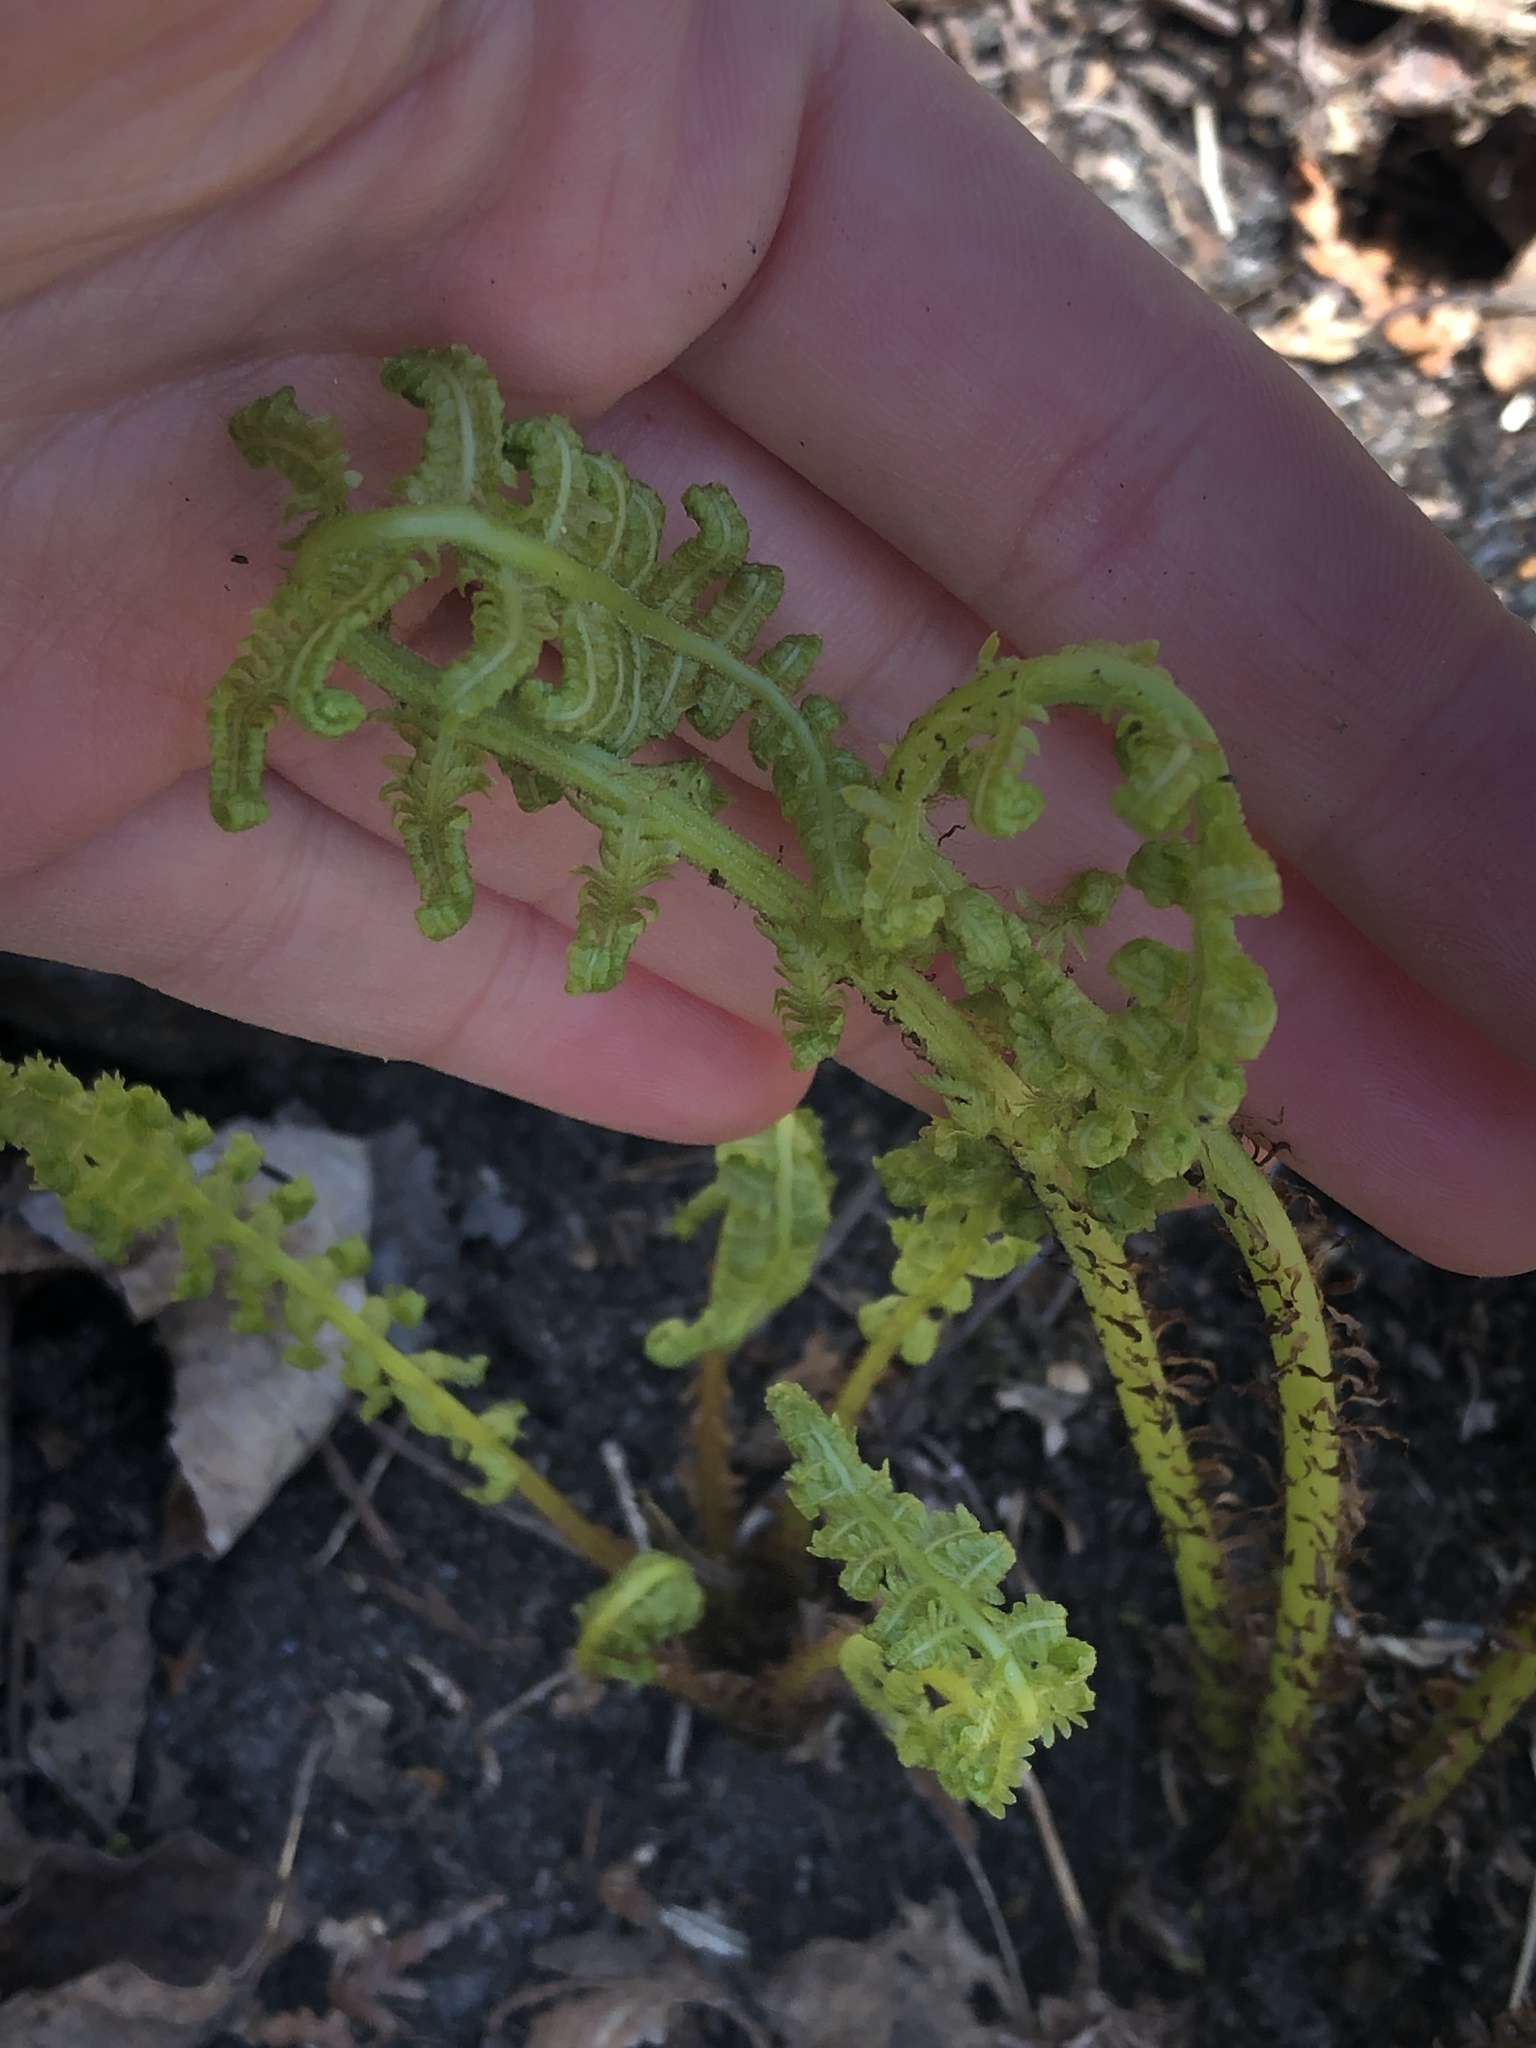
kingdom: Plantae
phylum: Tracheophyta
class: Polypodiopsida
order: Polypodiales
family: Athyriaceae
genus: Athyrium
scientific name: Athyrium angustum
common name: Northern lady fern
